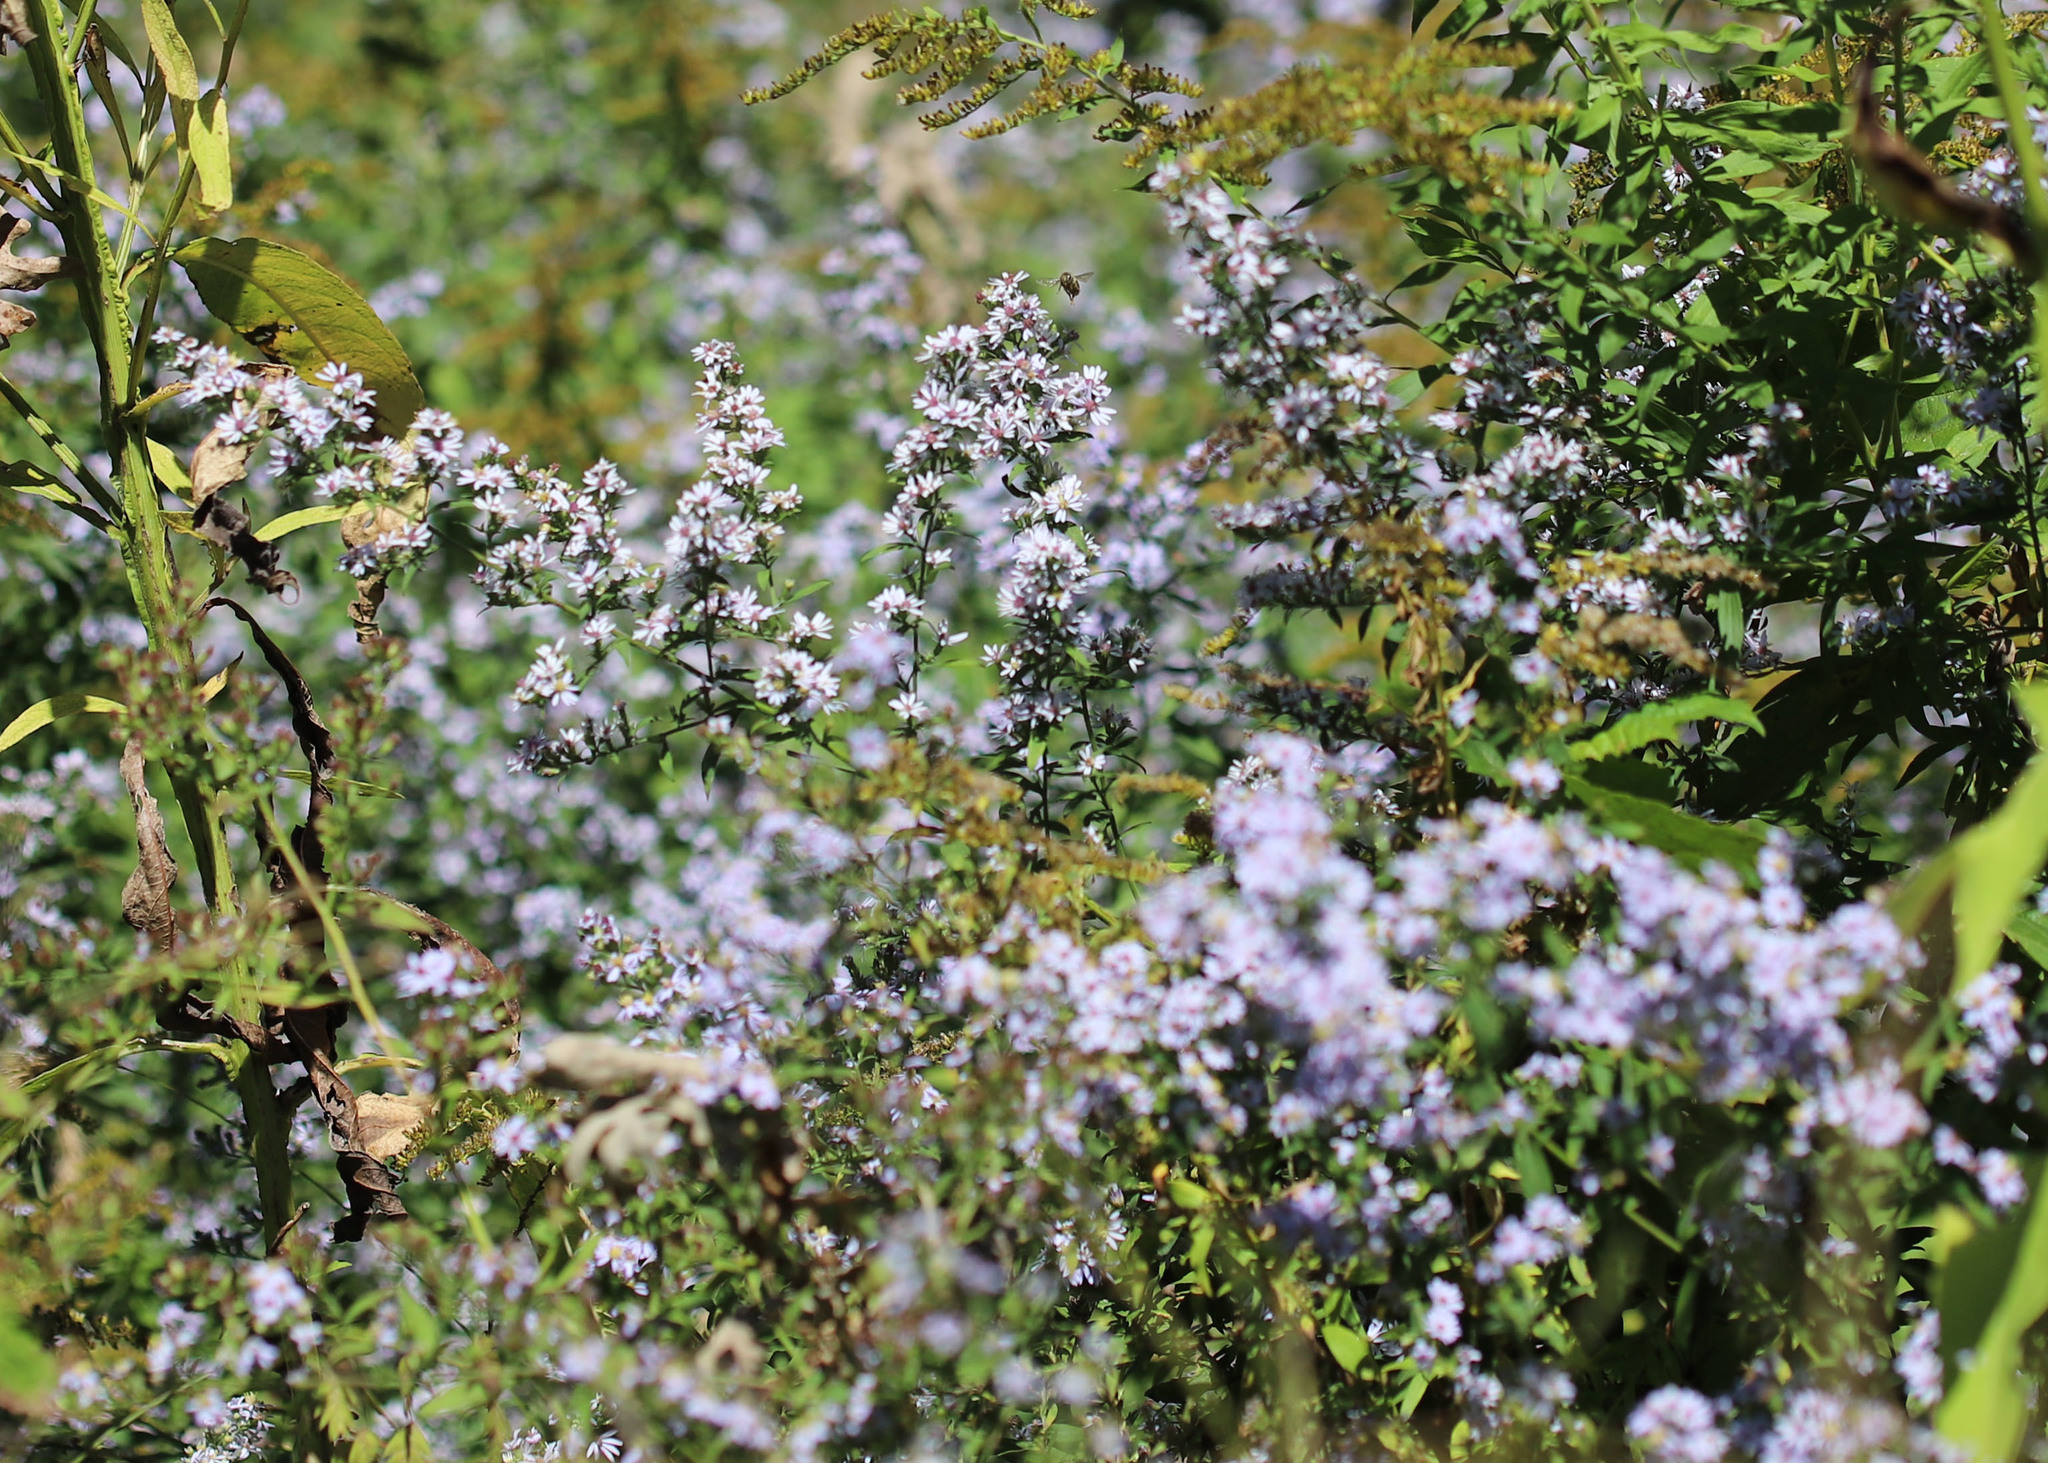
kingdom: Plantae
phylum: Tracheophyta
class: Magnoliopsida
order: Asterales
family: Asteraceae
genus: Symphyotrichum
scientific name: Symphyotrichum ericoides
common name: Heath aster
